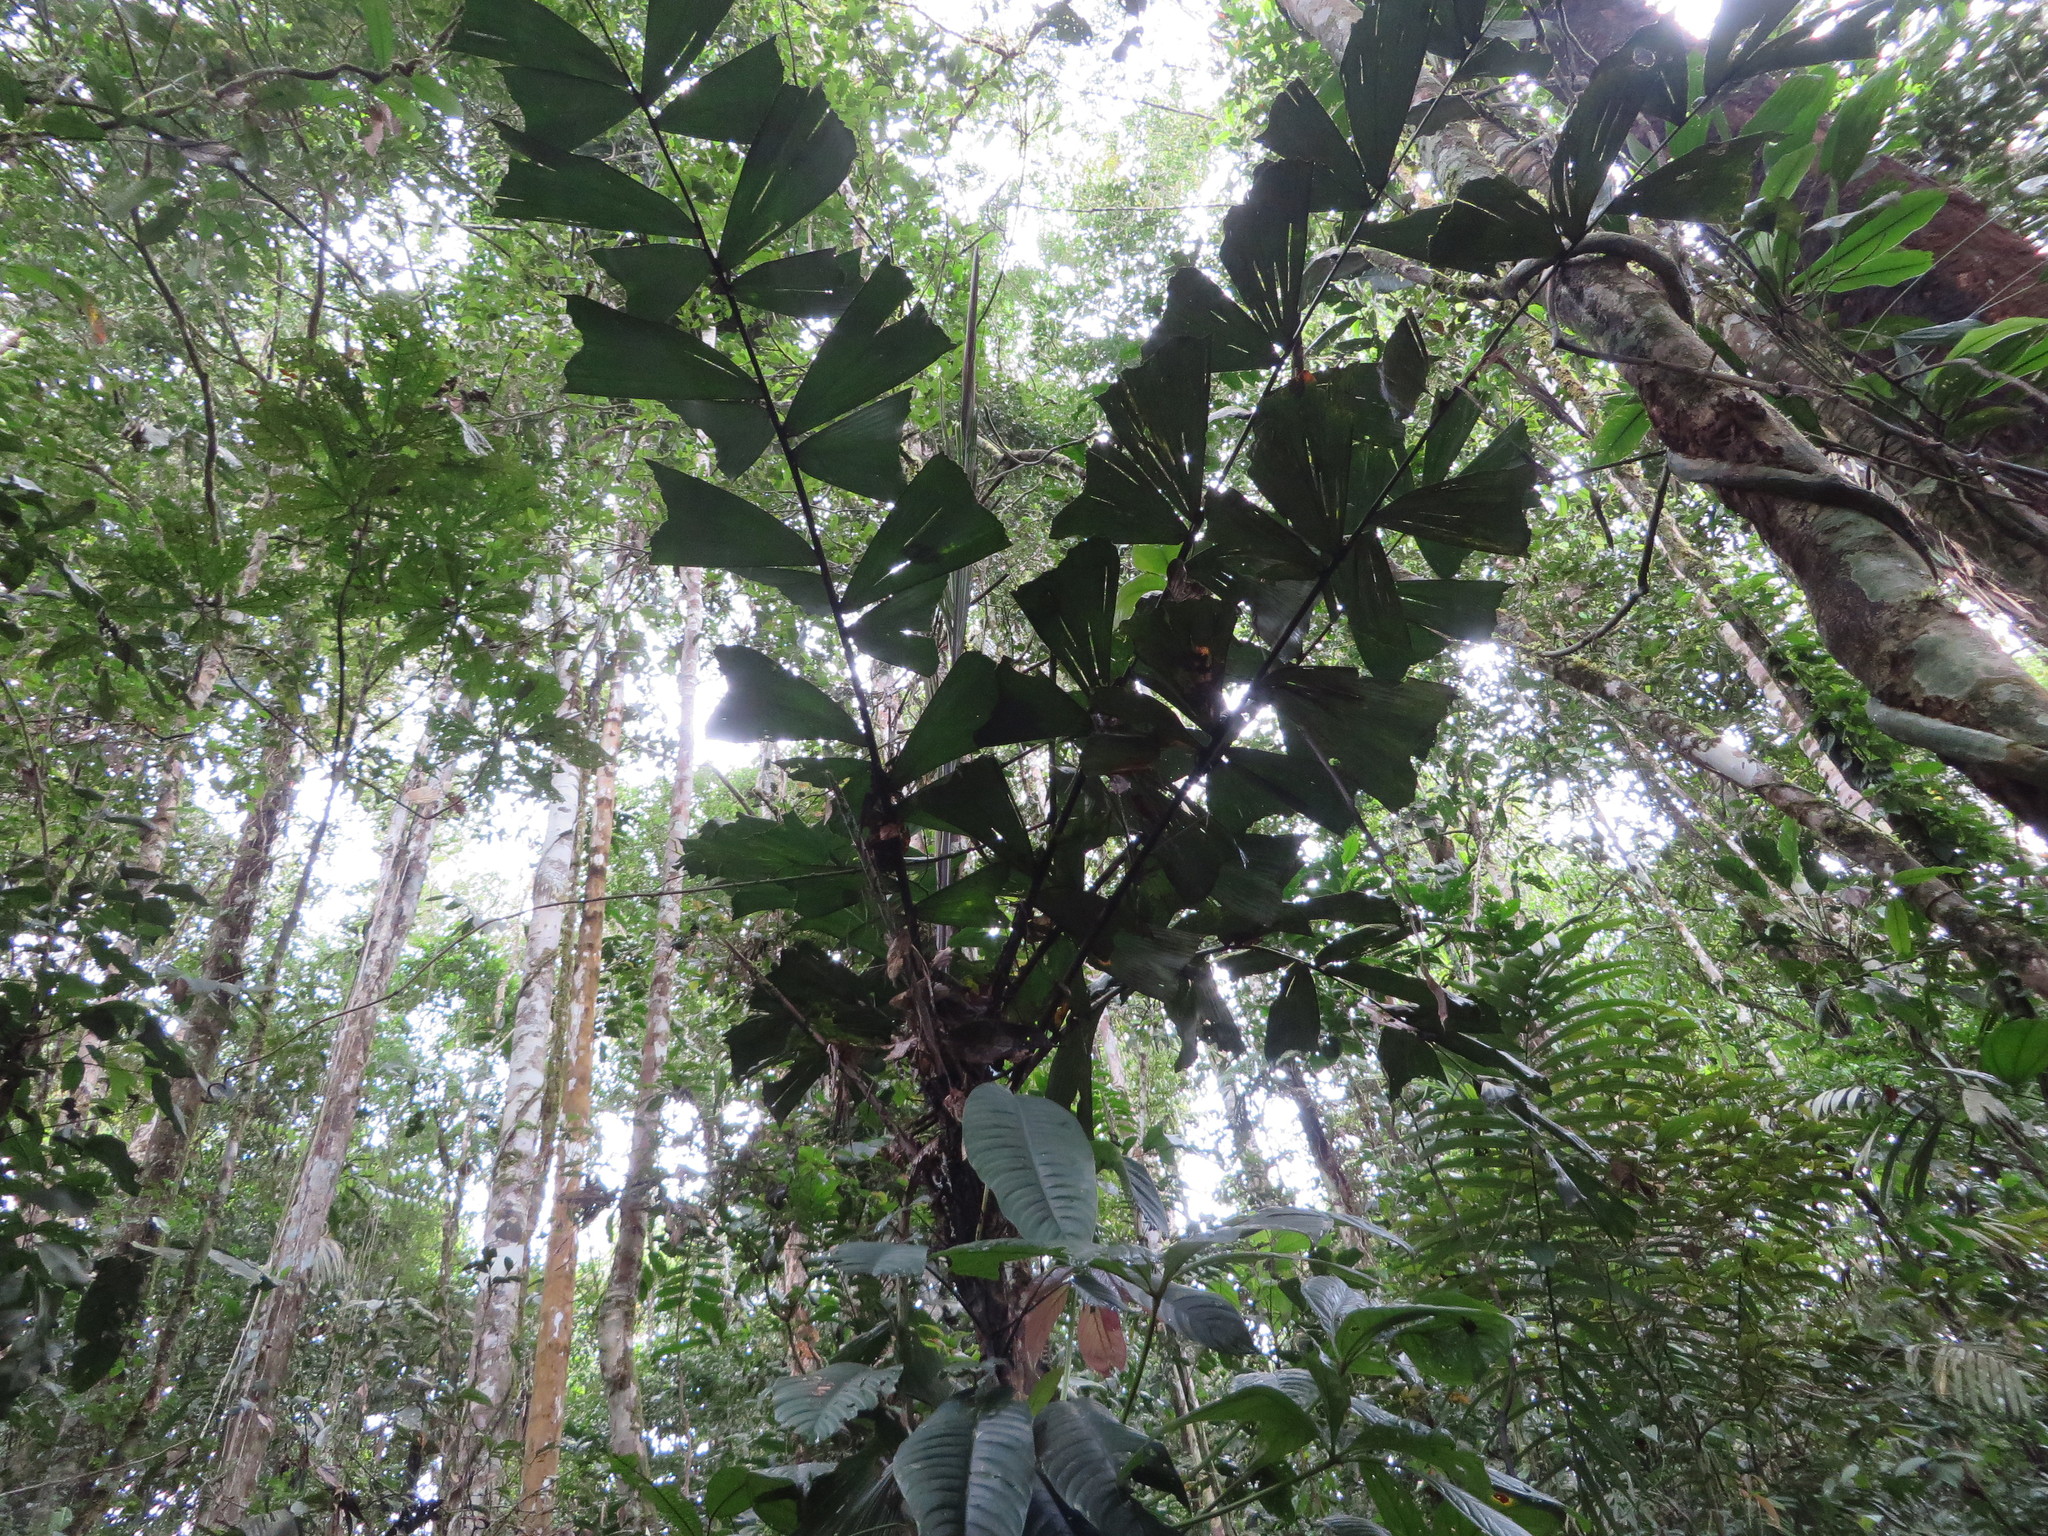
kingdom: Plantae
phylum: Tracheophyta
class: Liliopsida
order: Arecales
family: Arecaceae
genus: Aiphanes
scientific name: Aiphanes ulei
